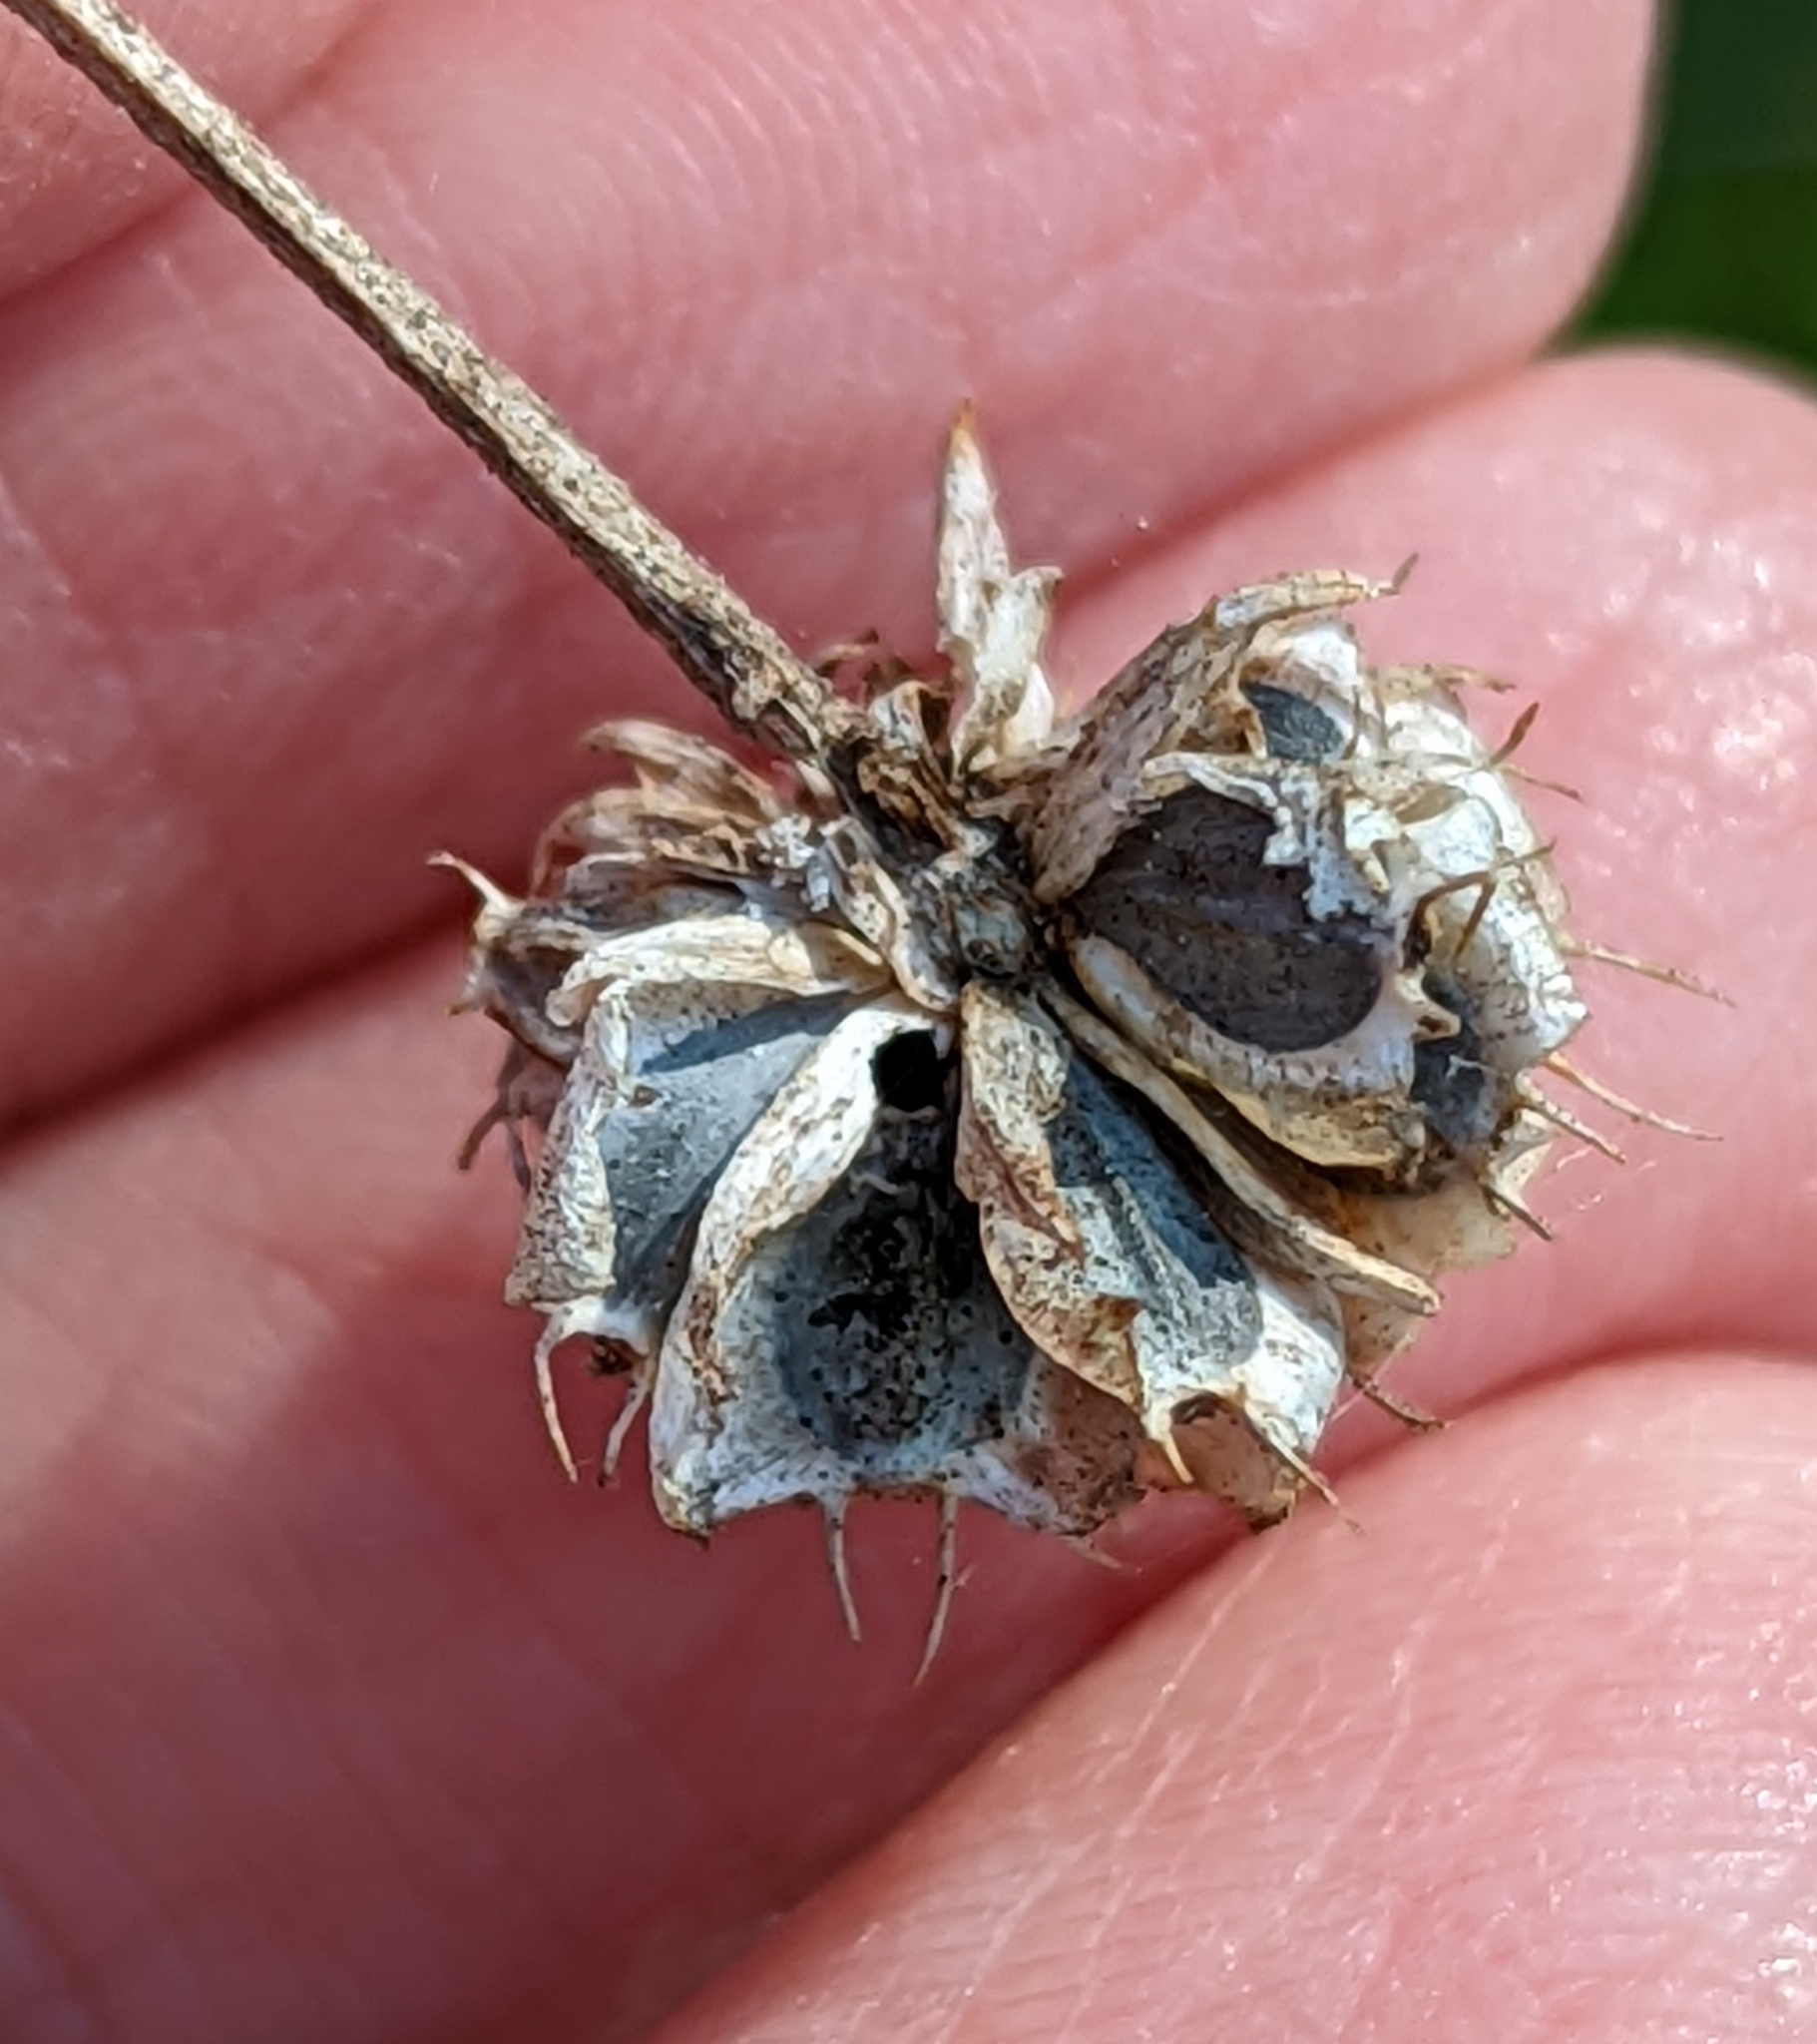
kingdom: Plantae
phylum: Tracheophyta
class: Magnoliopsida
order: Asterales
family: Asteraceae
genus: Verbesina
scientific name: Verbesina alternifolia
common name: Wingstem
